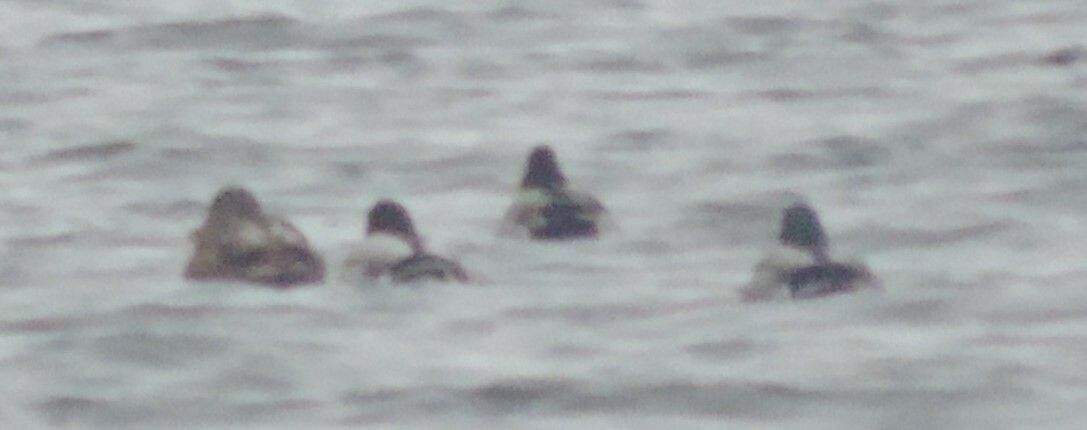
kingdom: Animalia
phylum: Chordata
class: Aves
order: Anseriformes
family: Anatidae
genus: Anas
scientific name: Anas platyrhynchos
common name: Mallard
